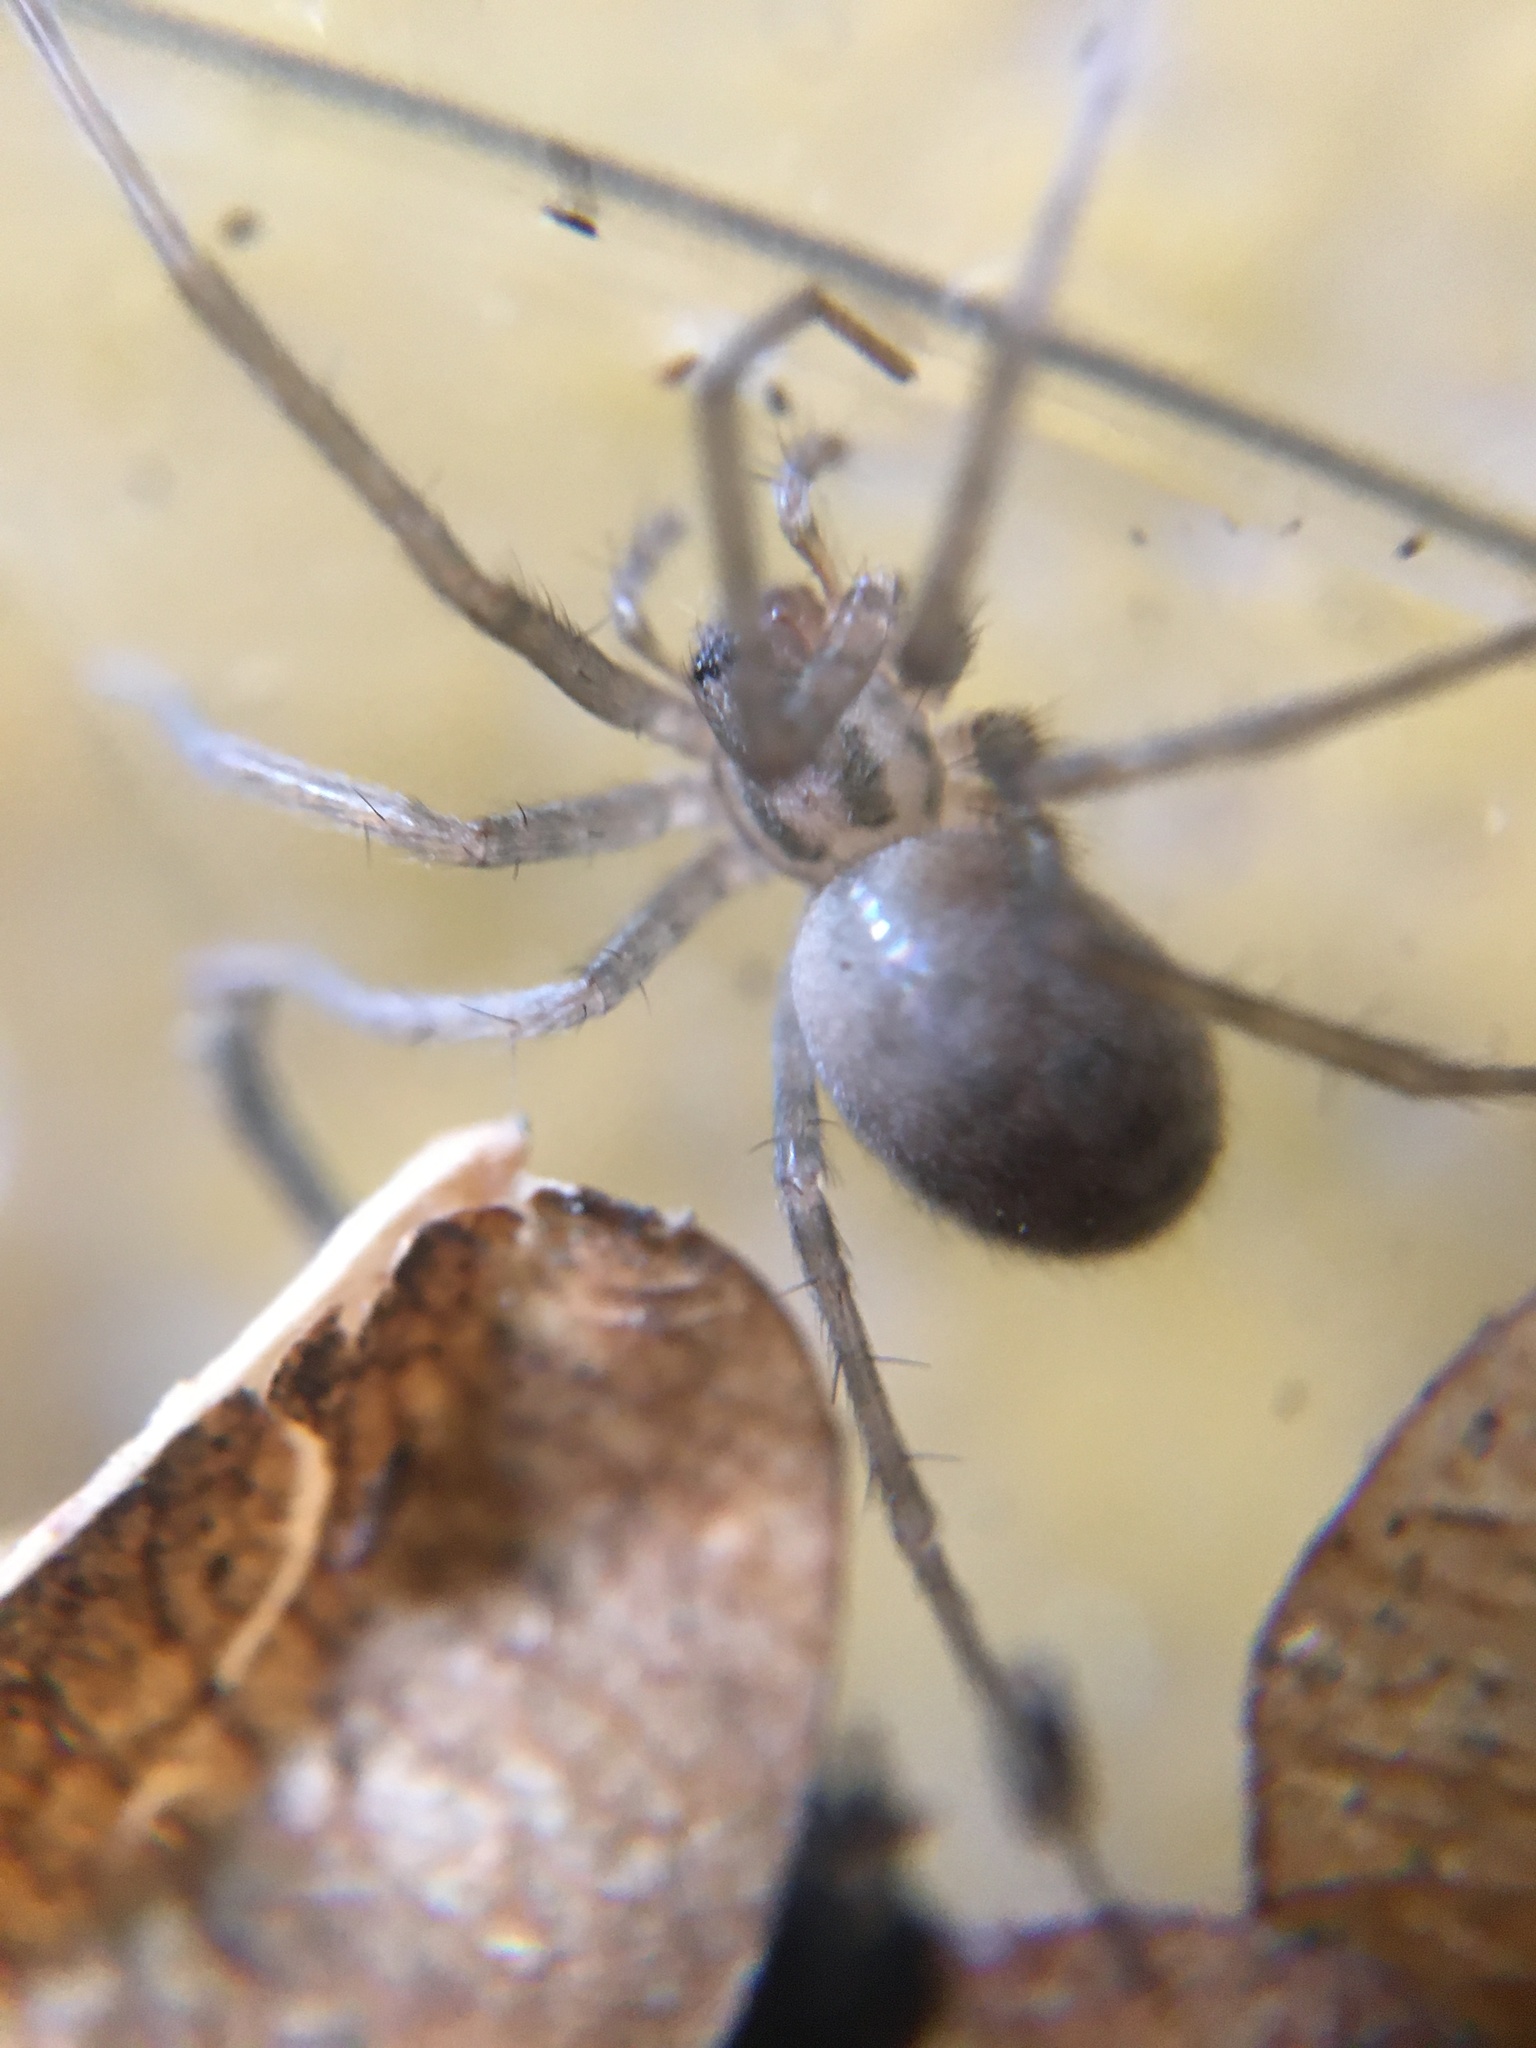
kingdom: Animalia
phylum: Arthropoda
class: Arachnida
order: Araneae
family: Agelenidae
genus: Tegenaria
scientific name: Tegenaria domestica
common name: Barn funnel weaver
